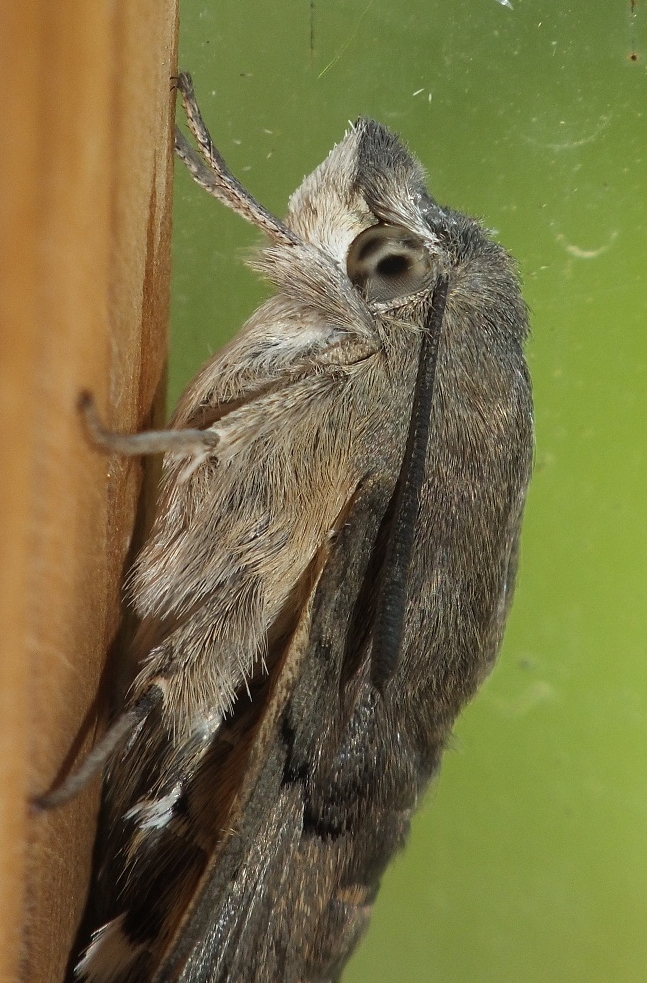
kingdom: Animalia
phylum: Arthropoda
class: Insecta
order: Lepidoptera
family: Sphingidae
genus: Macroglossum
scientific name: Macroglossum stellatarum
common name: Humming-bird hawk-moth
